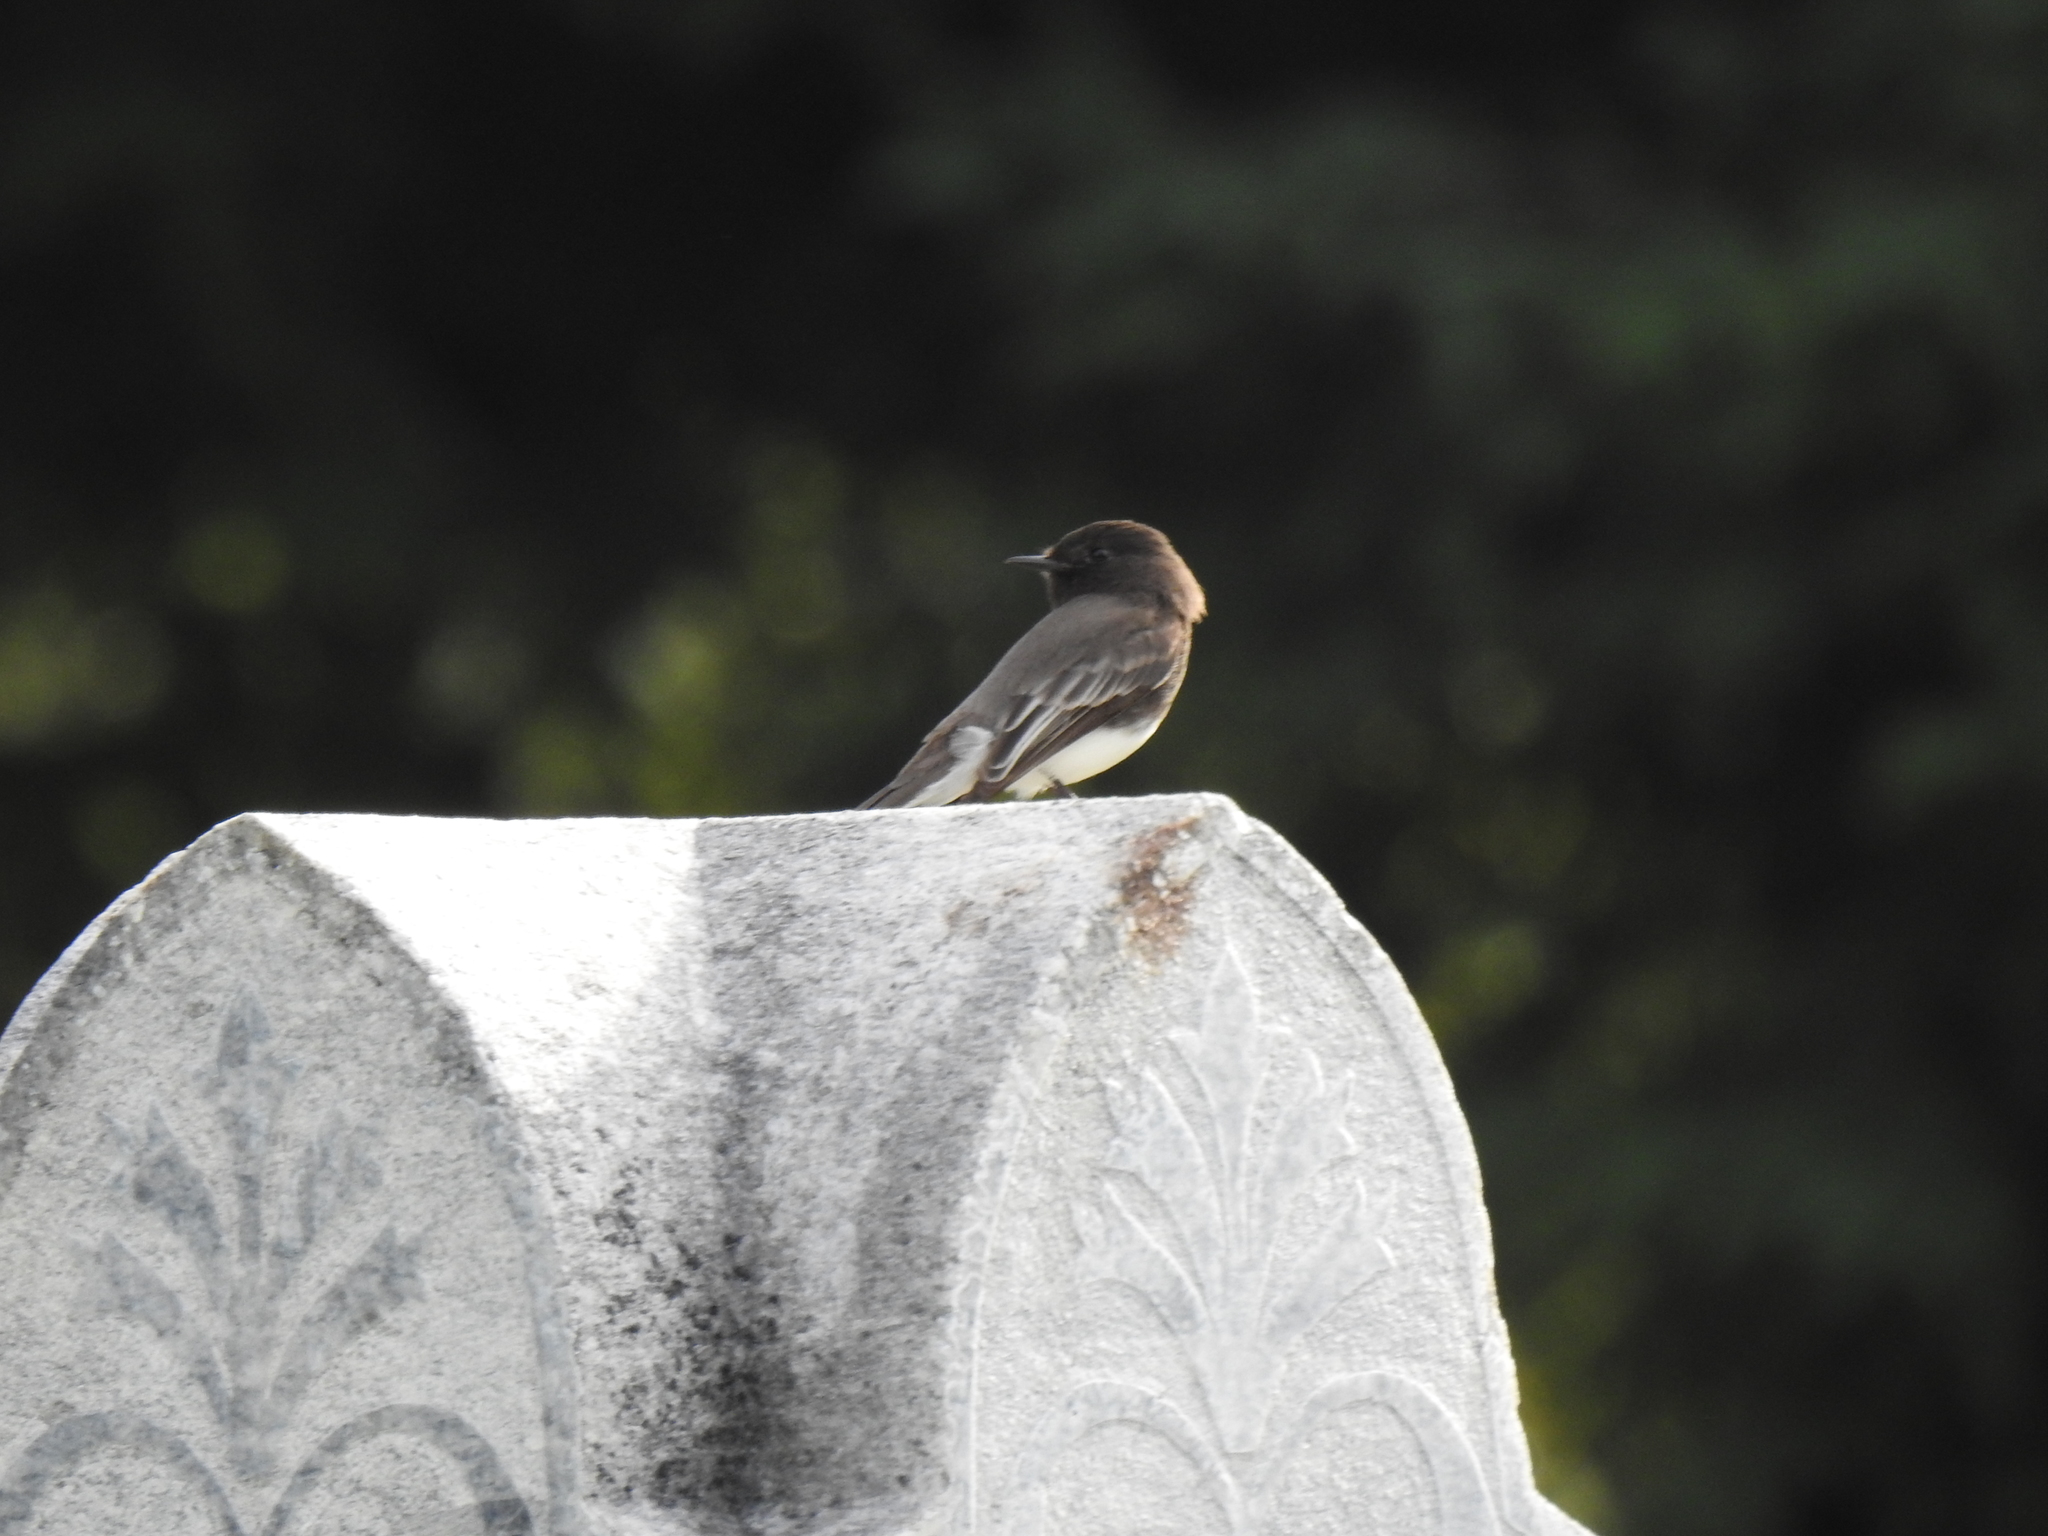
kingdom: Animalia
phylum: Chordata
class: Aves
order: Passeriformes
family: Tyrannidae
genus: Sayornis
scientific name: Sayornis nigricans
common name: Black phoebe
